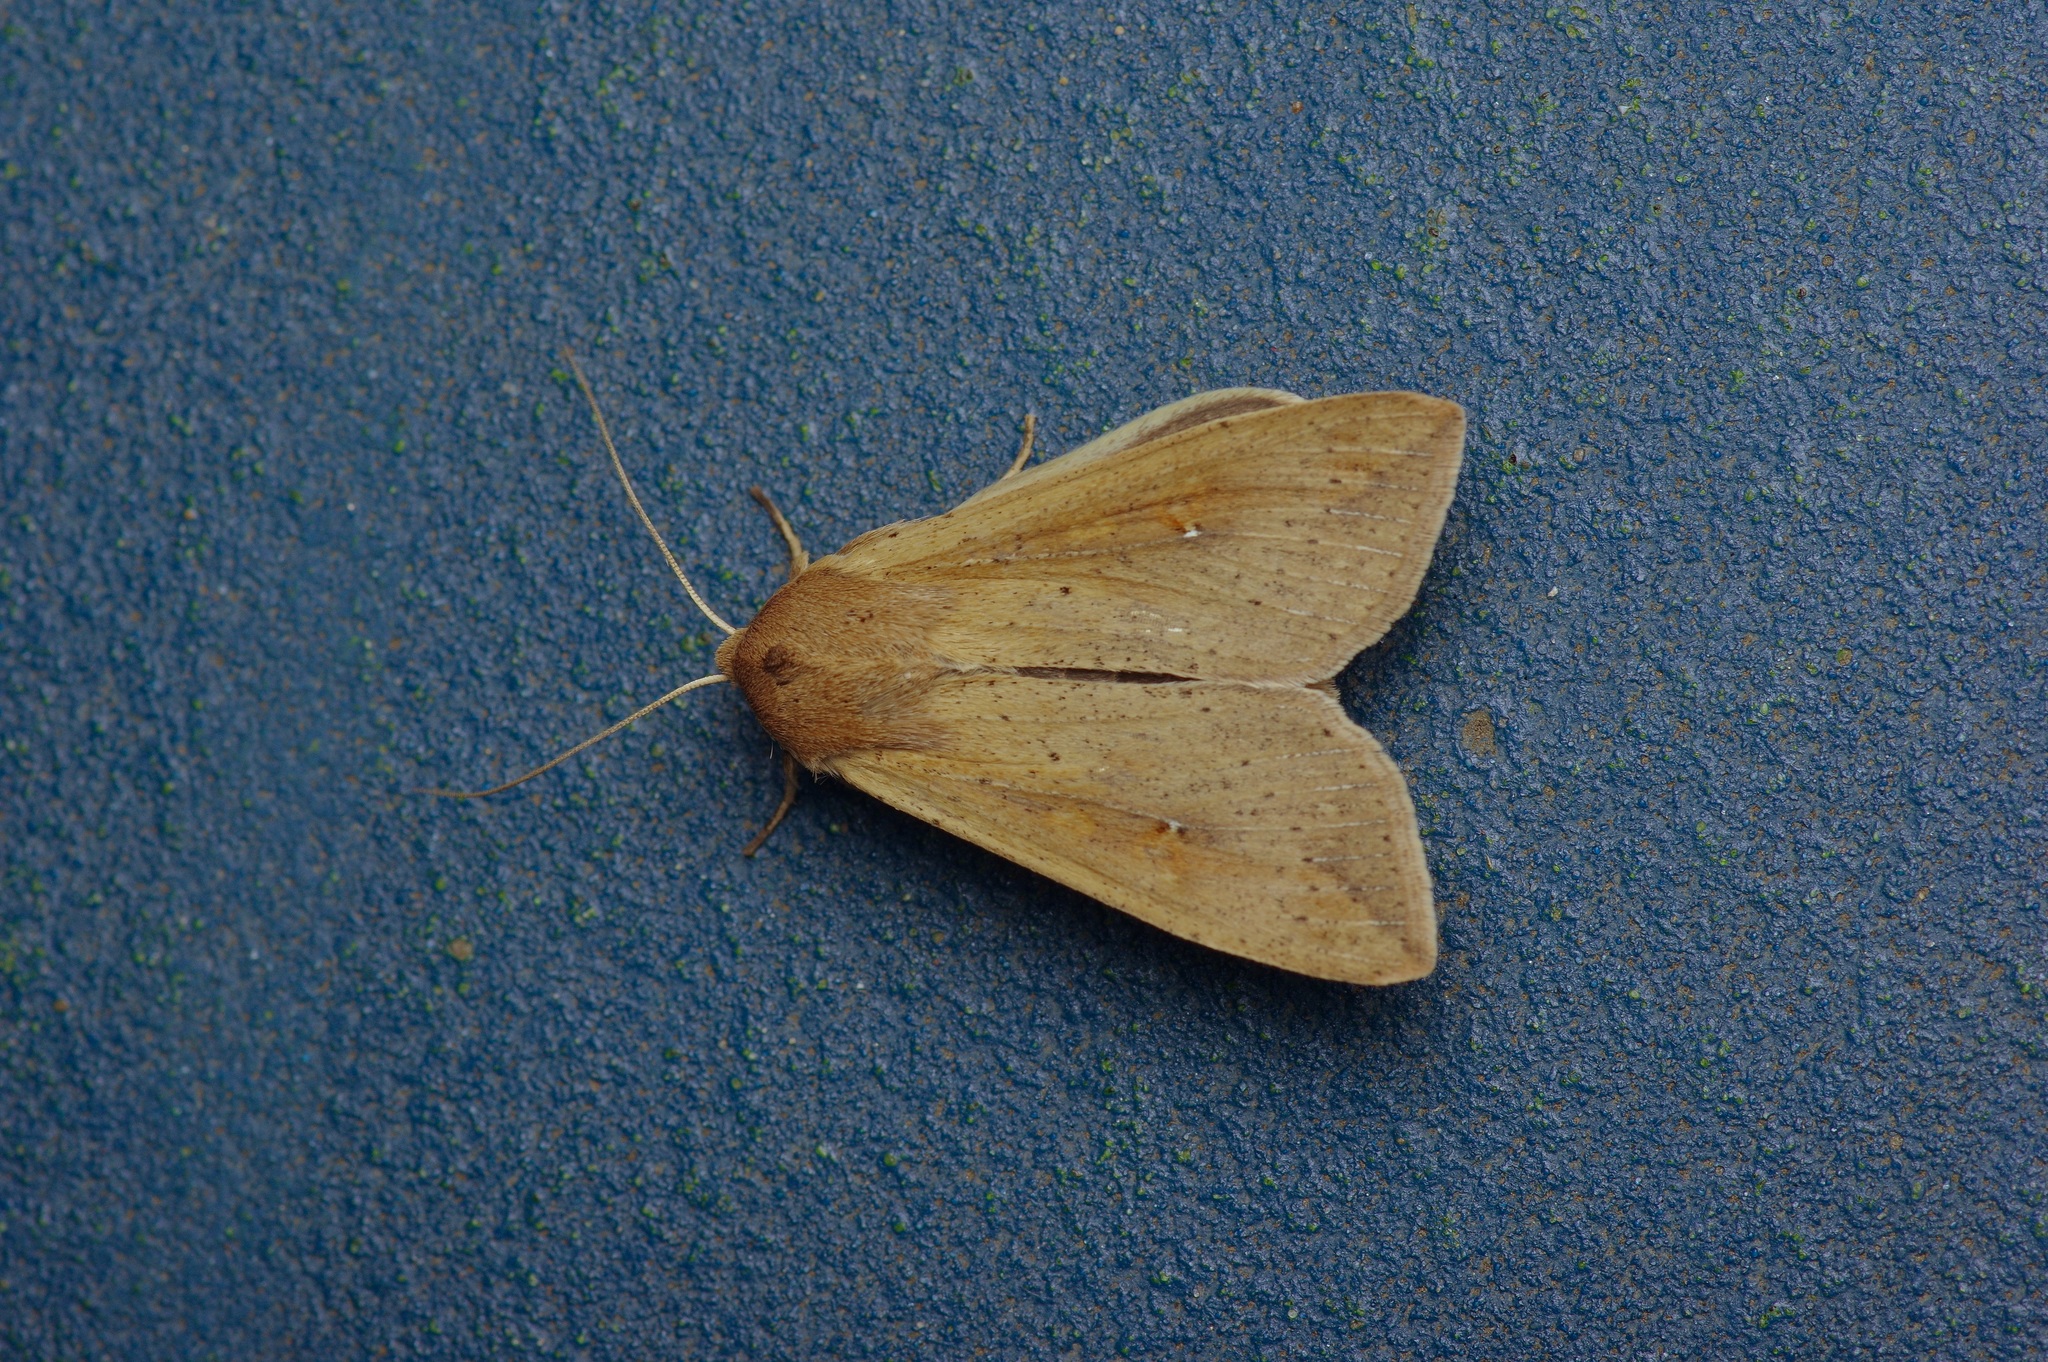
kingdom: Animalia
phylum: Arthropoda
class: Insecta
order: Lepidoptera
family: Noctuidae
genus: Mythimna
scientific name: Mythimna unipuncta
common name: White-speck
